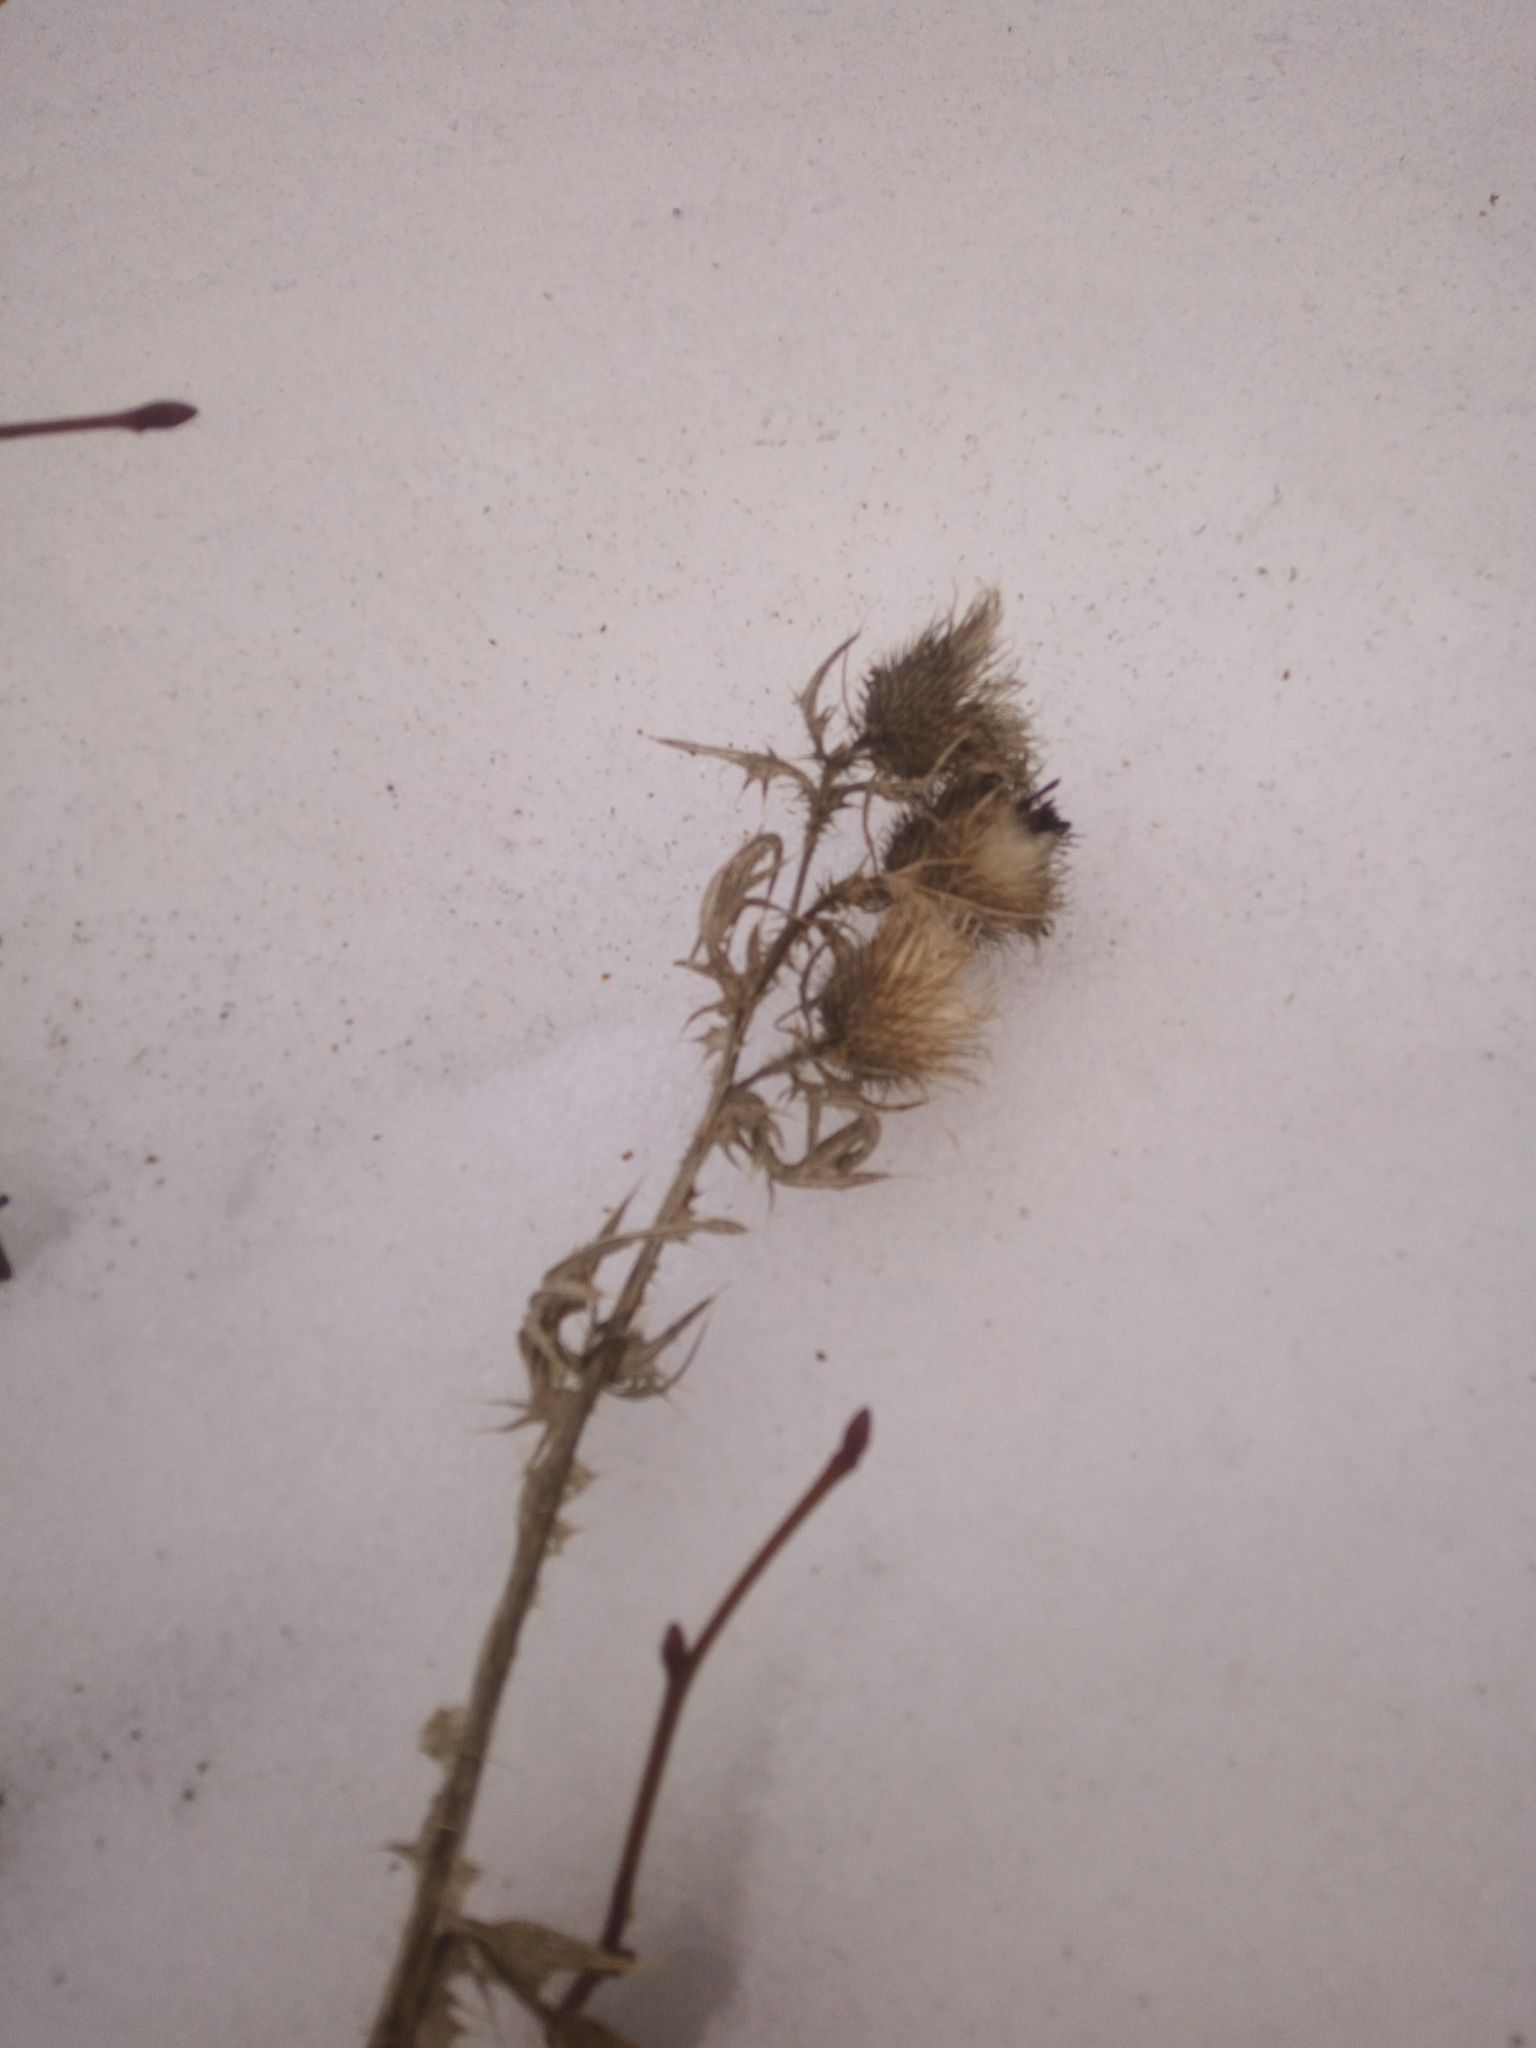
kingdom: Plantae
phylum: Tracheophyta
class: Magnoliopsida
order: Asterales
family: Asteraceae
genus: Cirsium
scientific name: Cirsium vulgare
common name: Bull thistle
